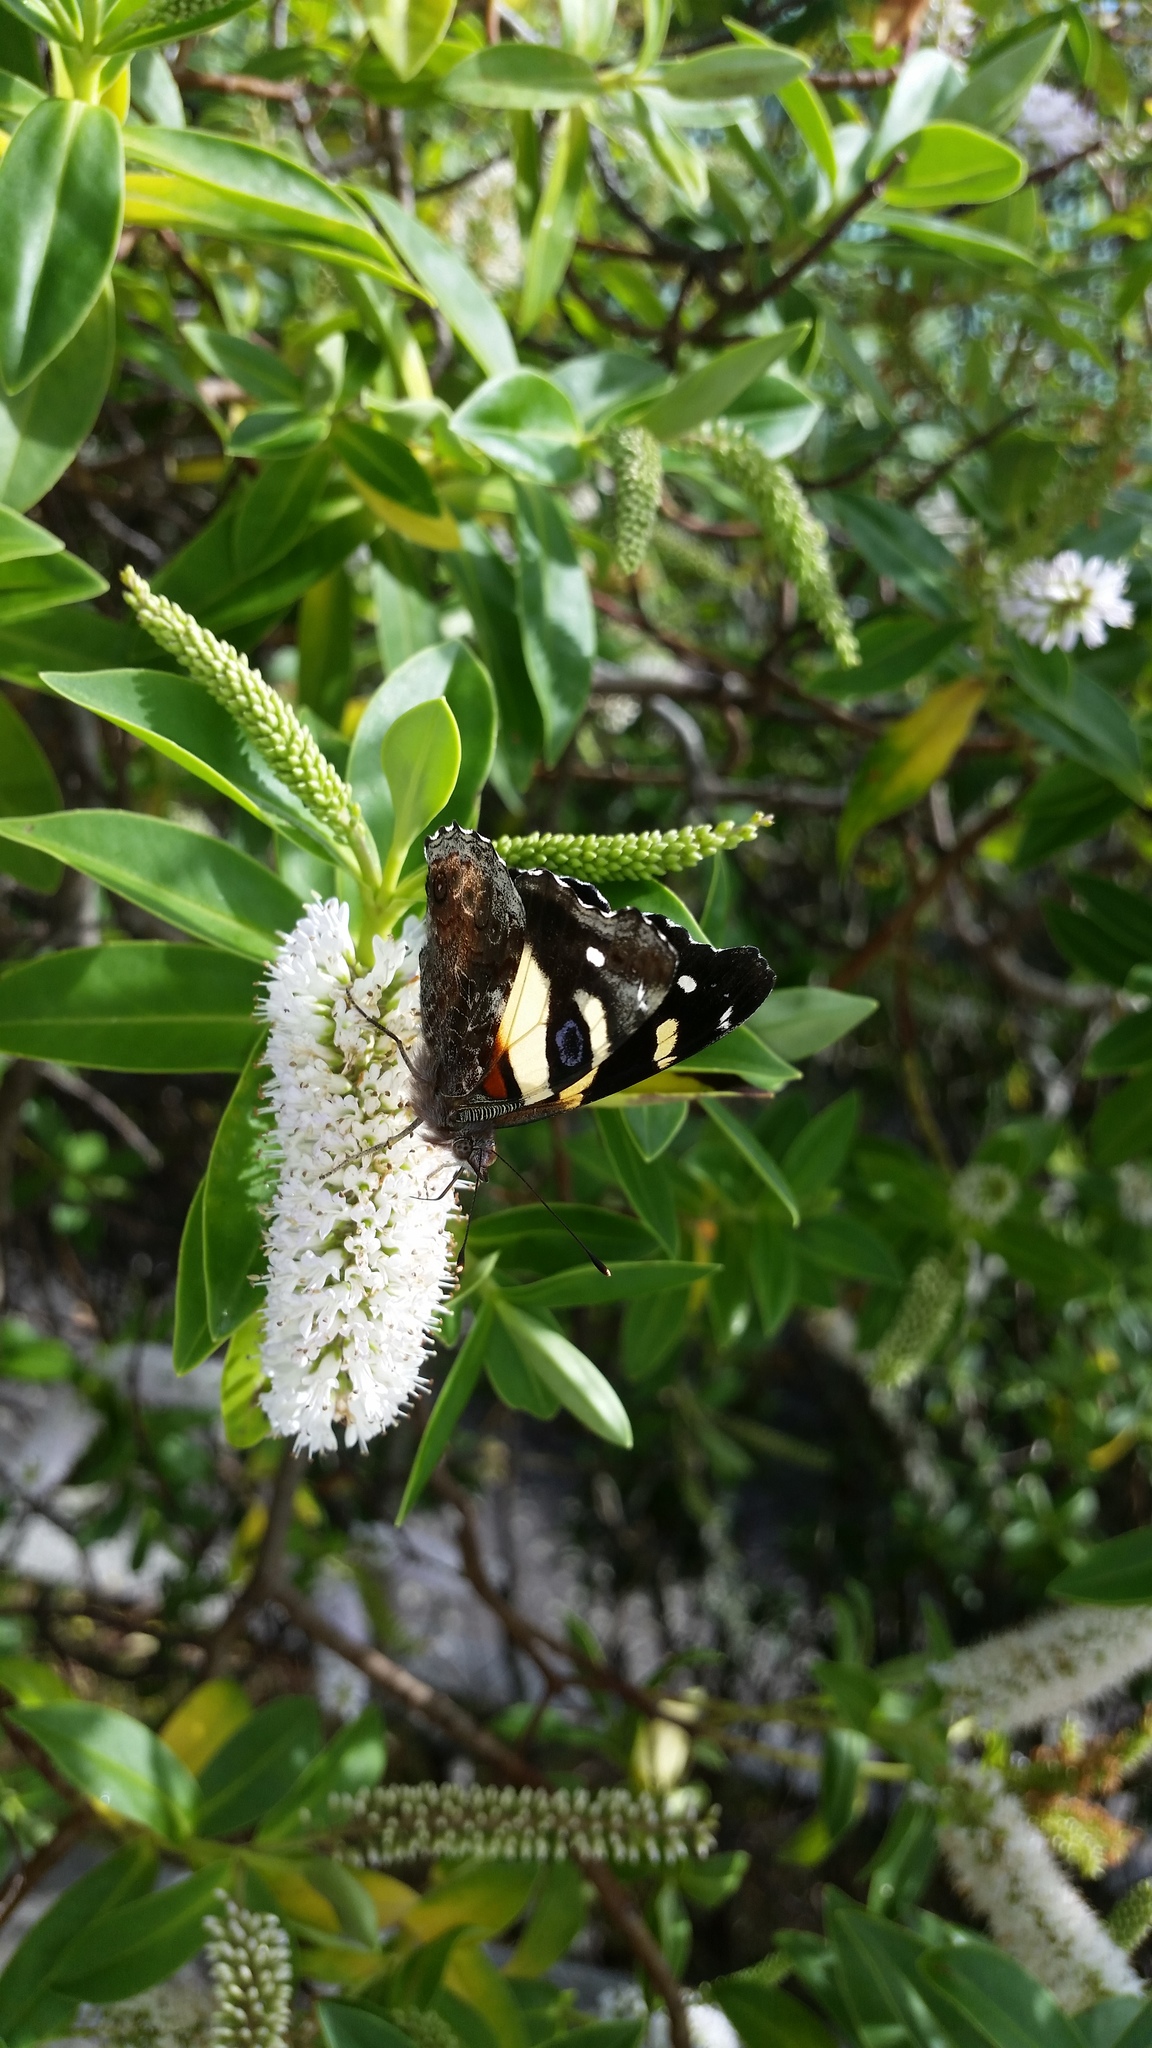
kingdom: Animalia
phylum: Arthropoda
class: Insecta
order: Lepidoptera
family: Nymphalidae
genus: Vanessa
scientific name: Vanessa itea
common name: Yellow admiral
